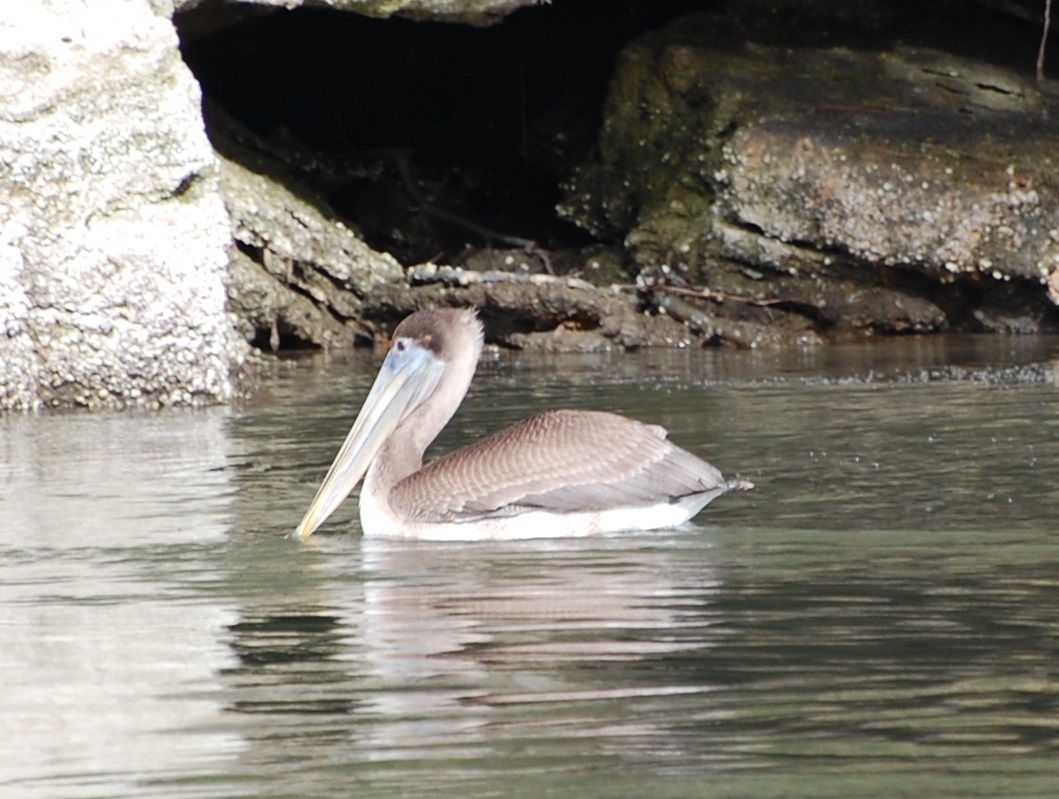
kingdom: Animalia
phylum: Chordata
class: Aves
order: Pelecaniformes
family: Pelecanidae
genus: Pelecanus
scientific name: Pelecanus occidentalis
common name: Brown pelican
